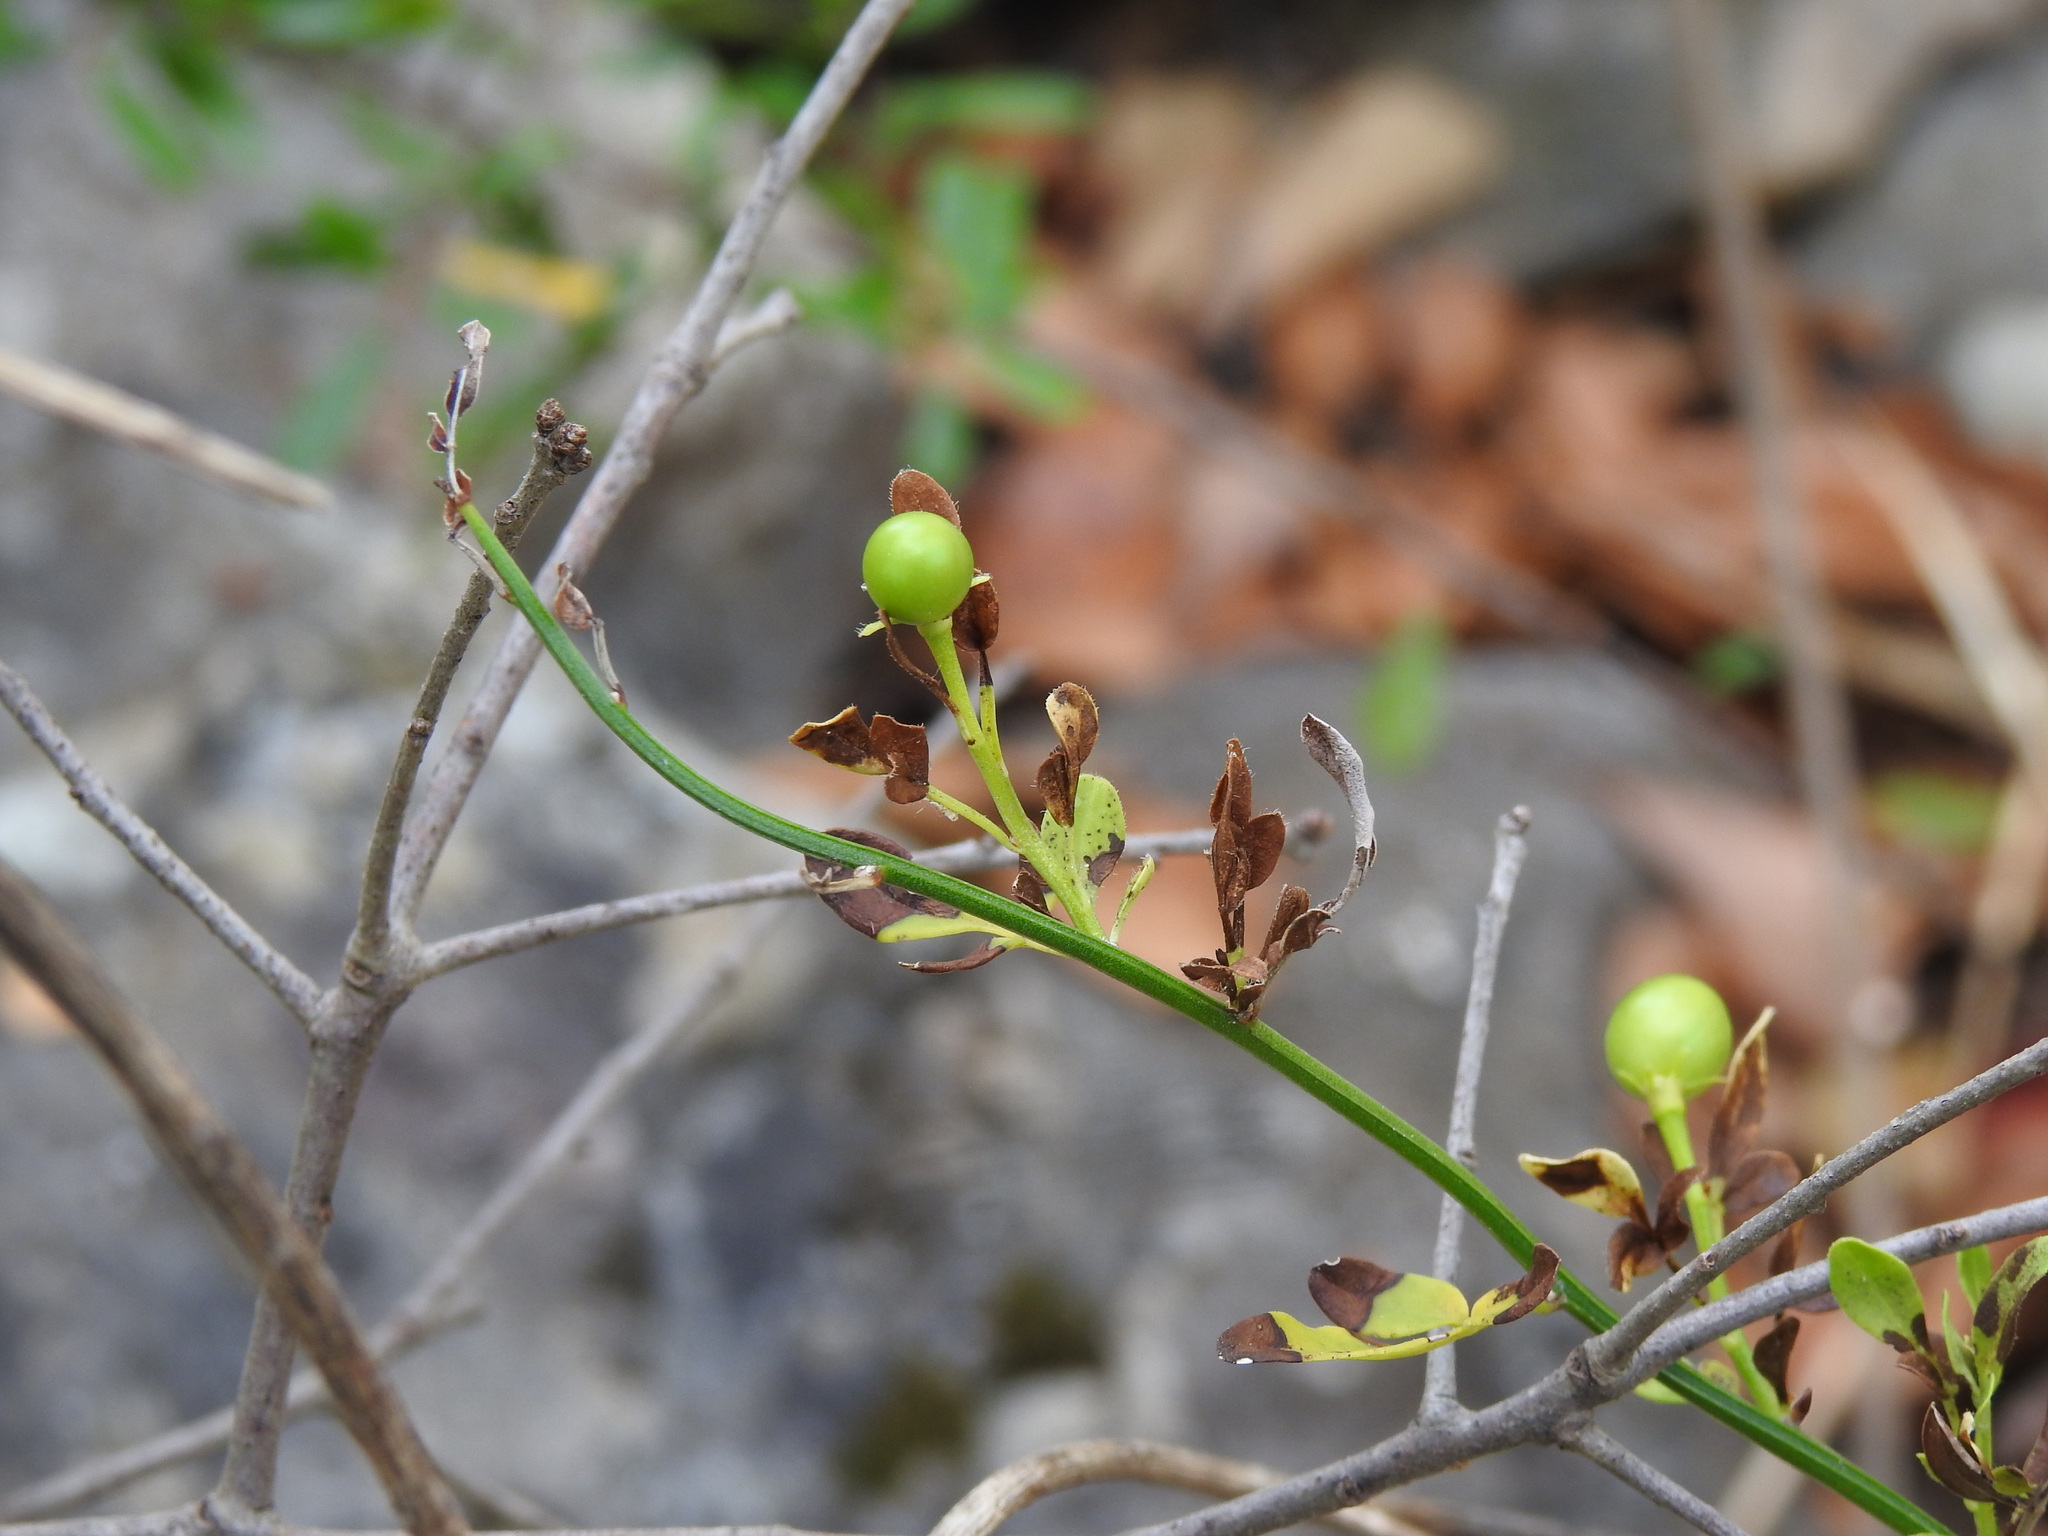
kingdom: Plantae
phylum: Tracheophyta
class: Magnoliopsida
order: Lamiales
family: Oleaceae
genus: Chrysojasminum
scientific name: Chrysojasminum fruticans
